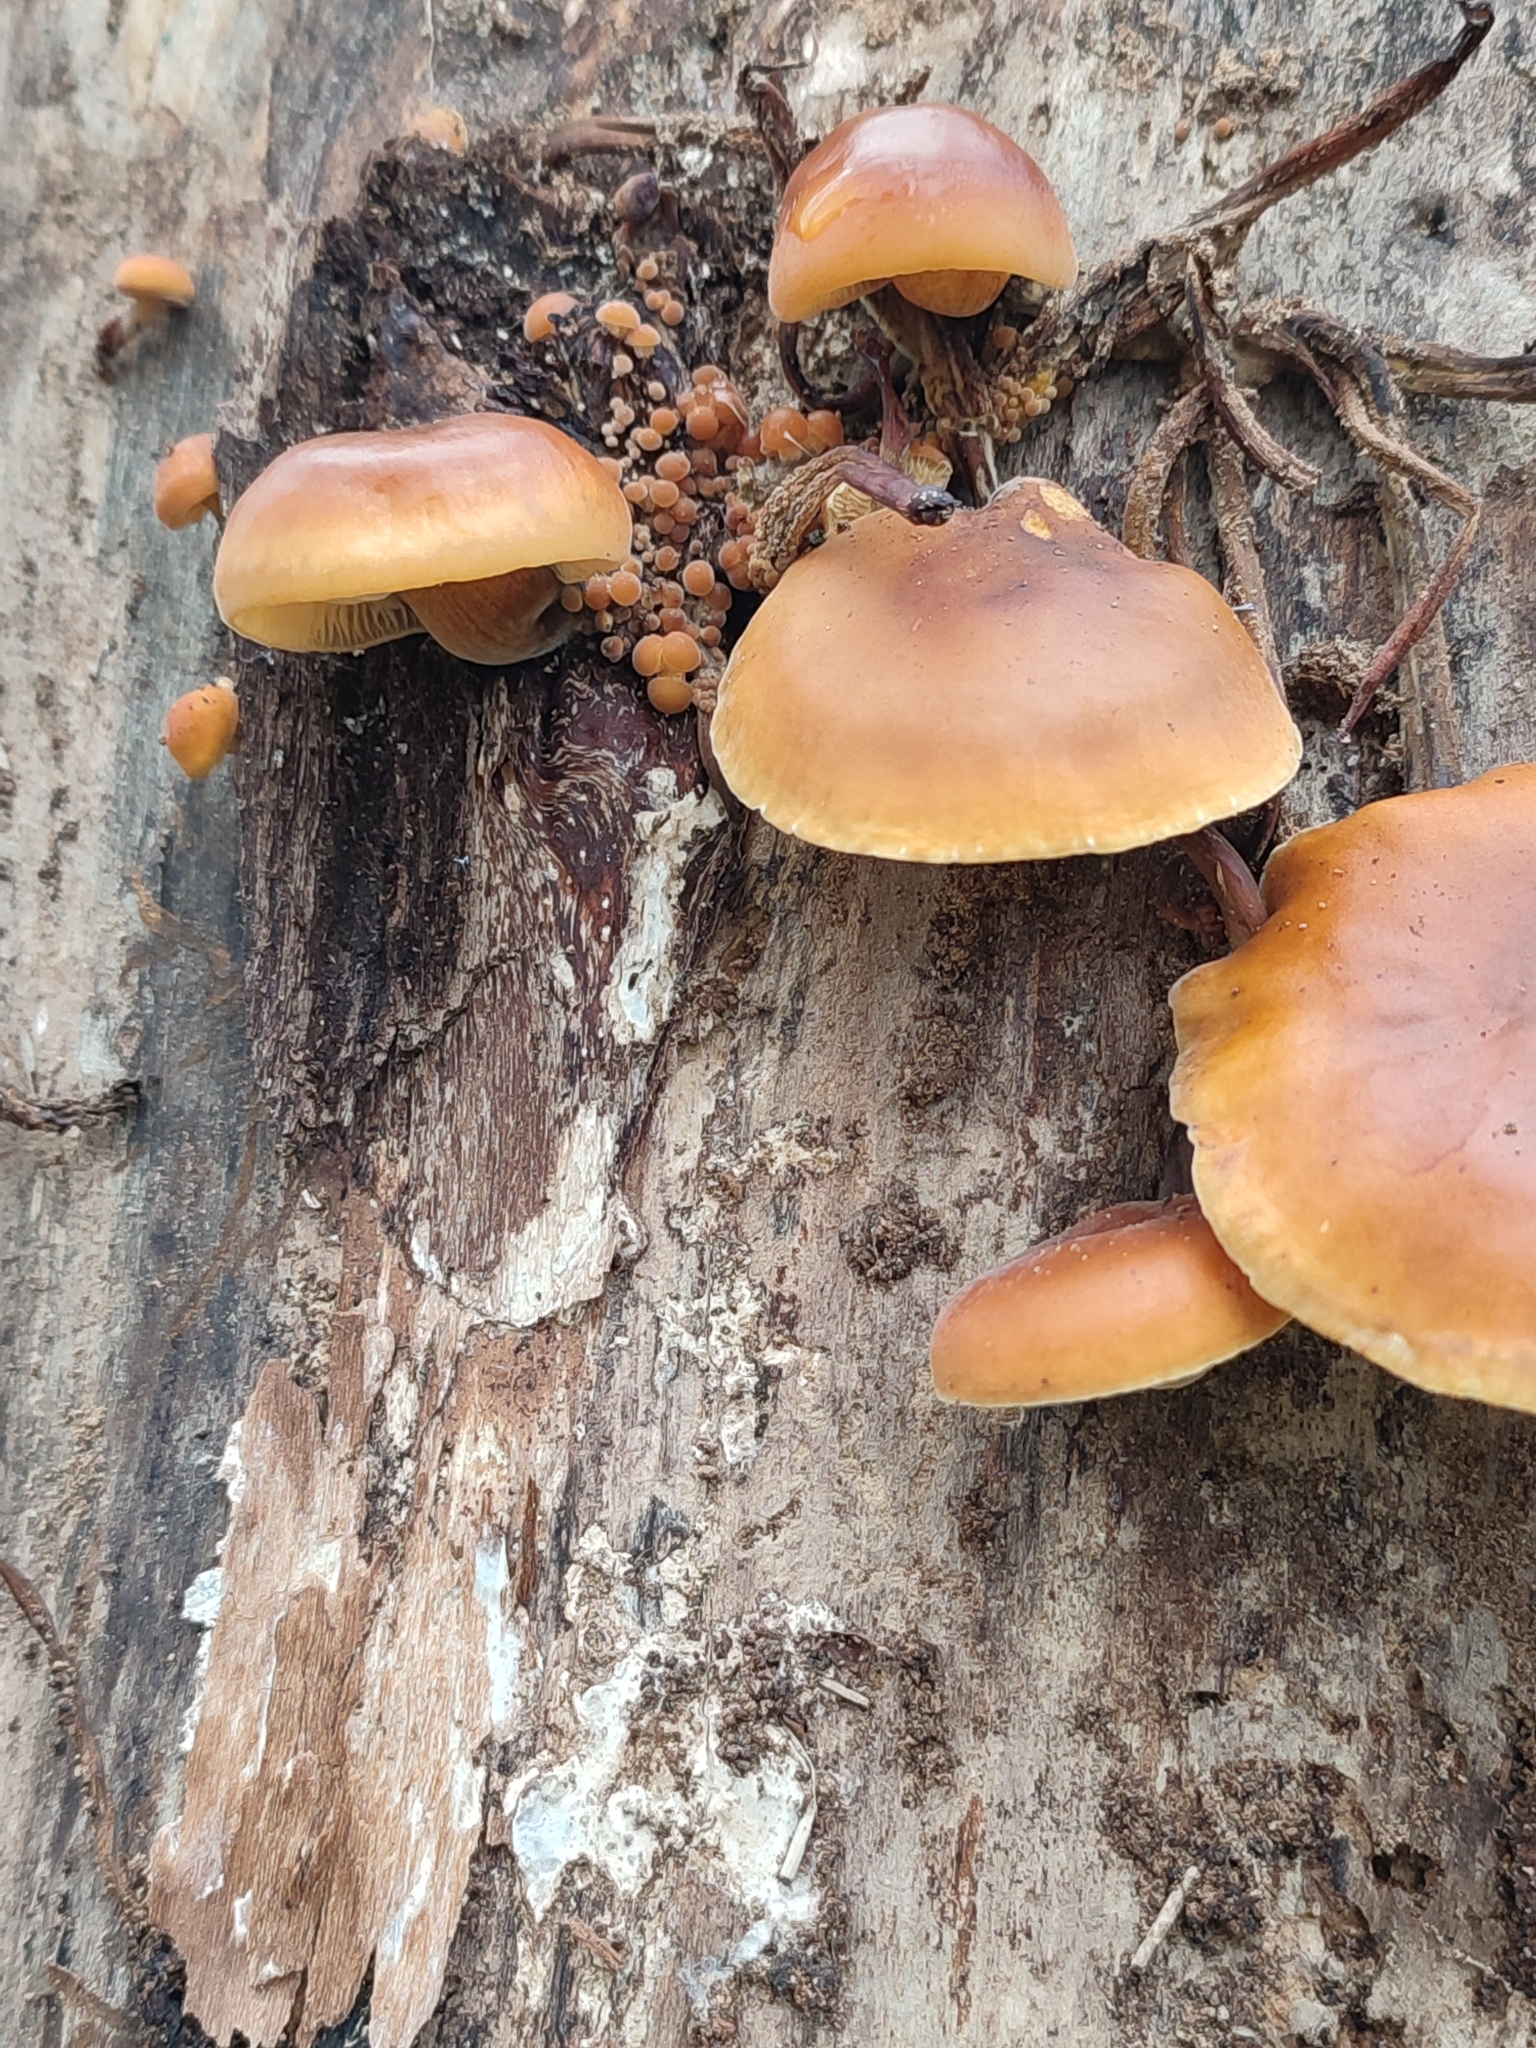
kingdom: Fungi
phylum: Basidiomycota
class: Agaricomycetes
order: Agaricales
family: Physalacriaceae
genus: Flammulina
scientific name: Flammulina
